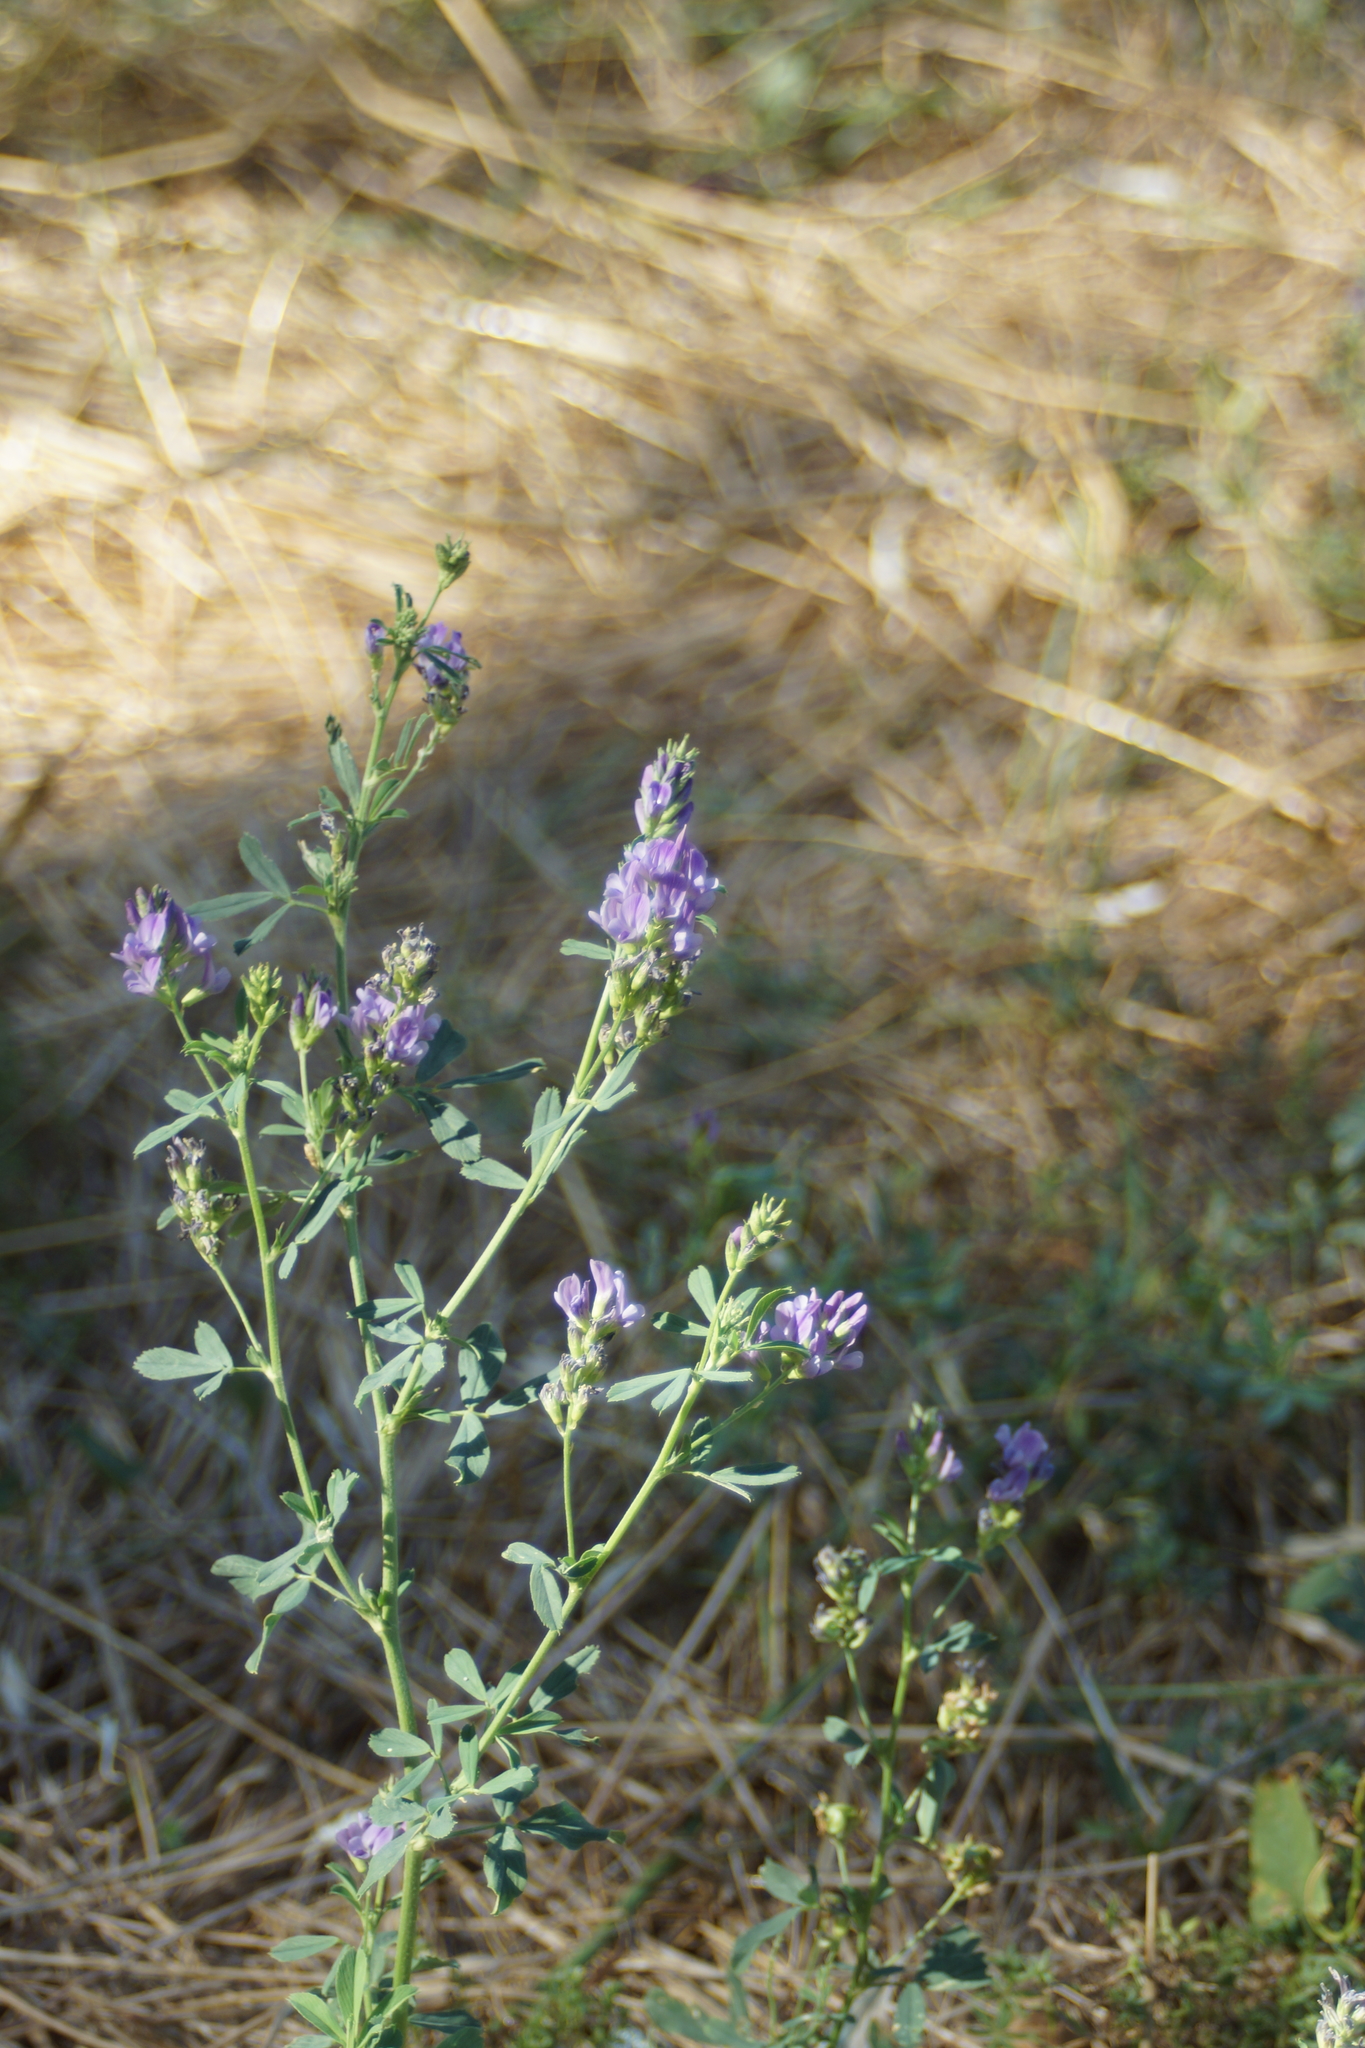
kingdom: Plantae
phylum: Tracheophyta
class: Magnoliopsida
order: Fabales
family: Fabaceae
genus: Medicago
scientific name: Medicago sativa
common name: Alfalfa
